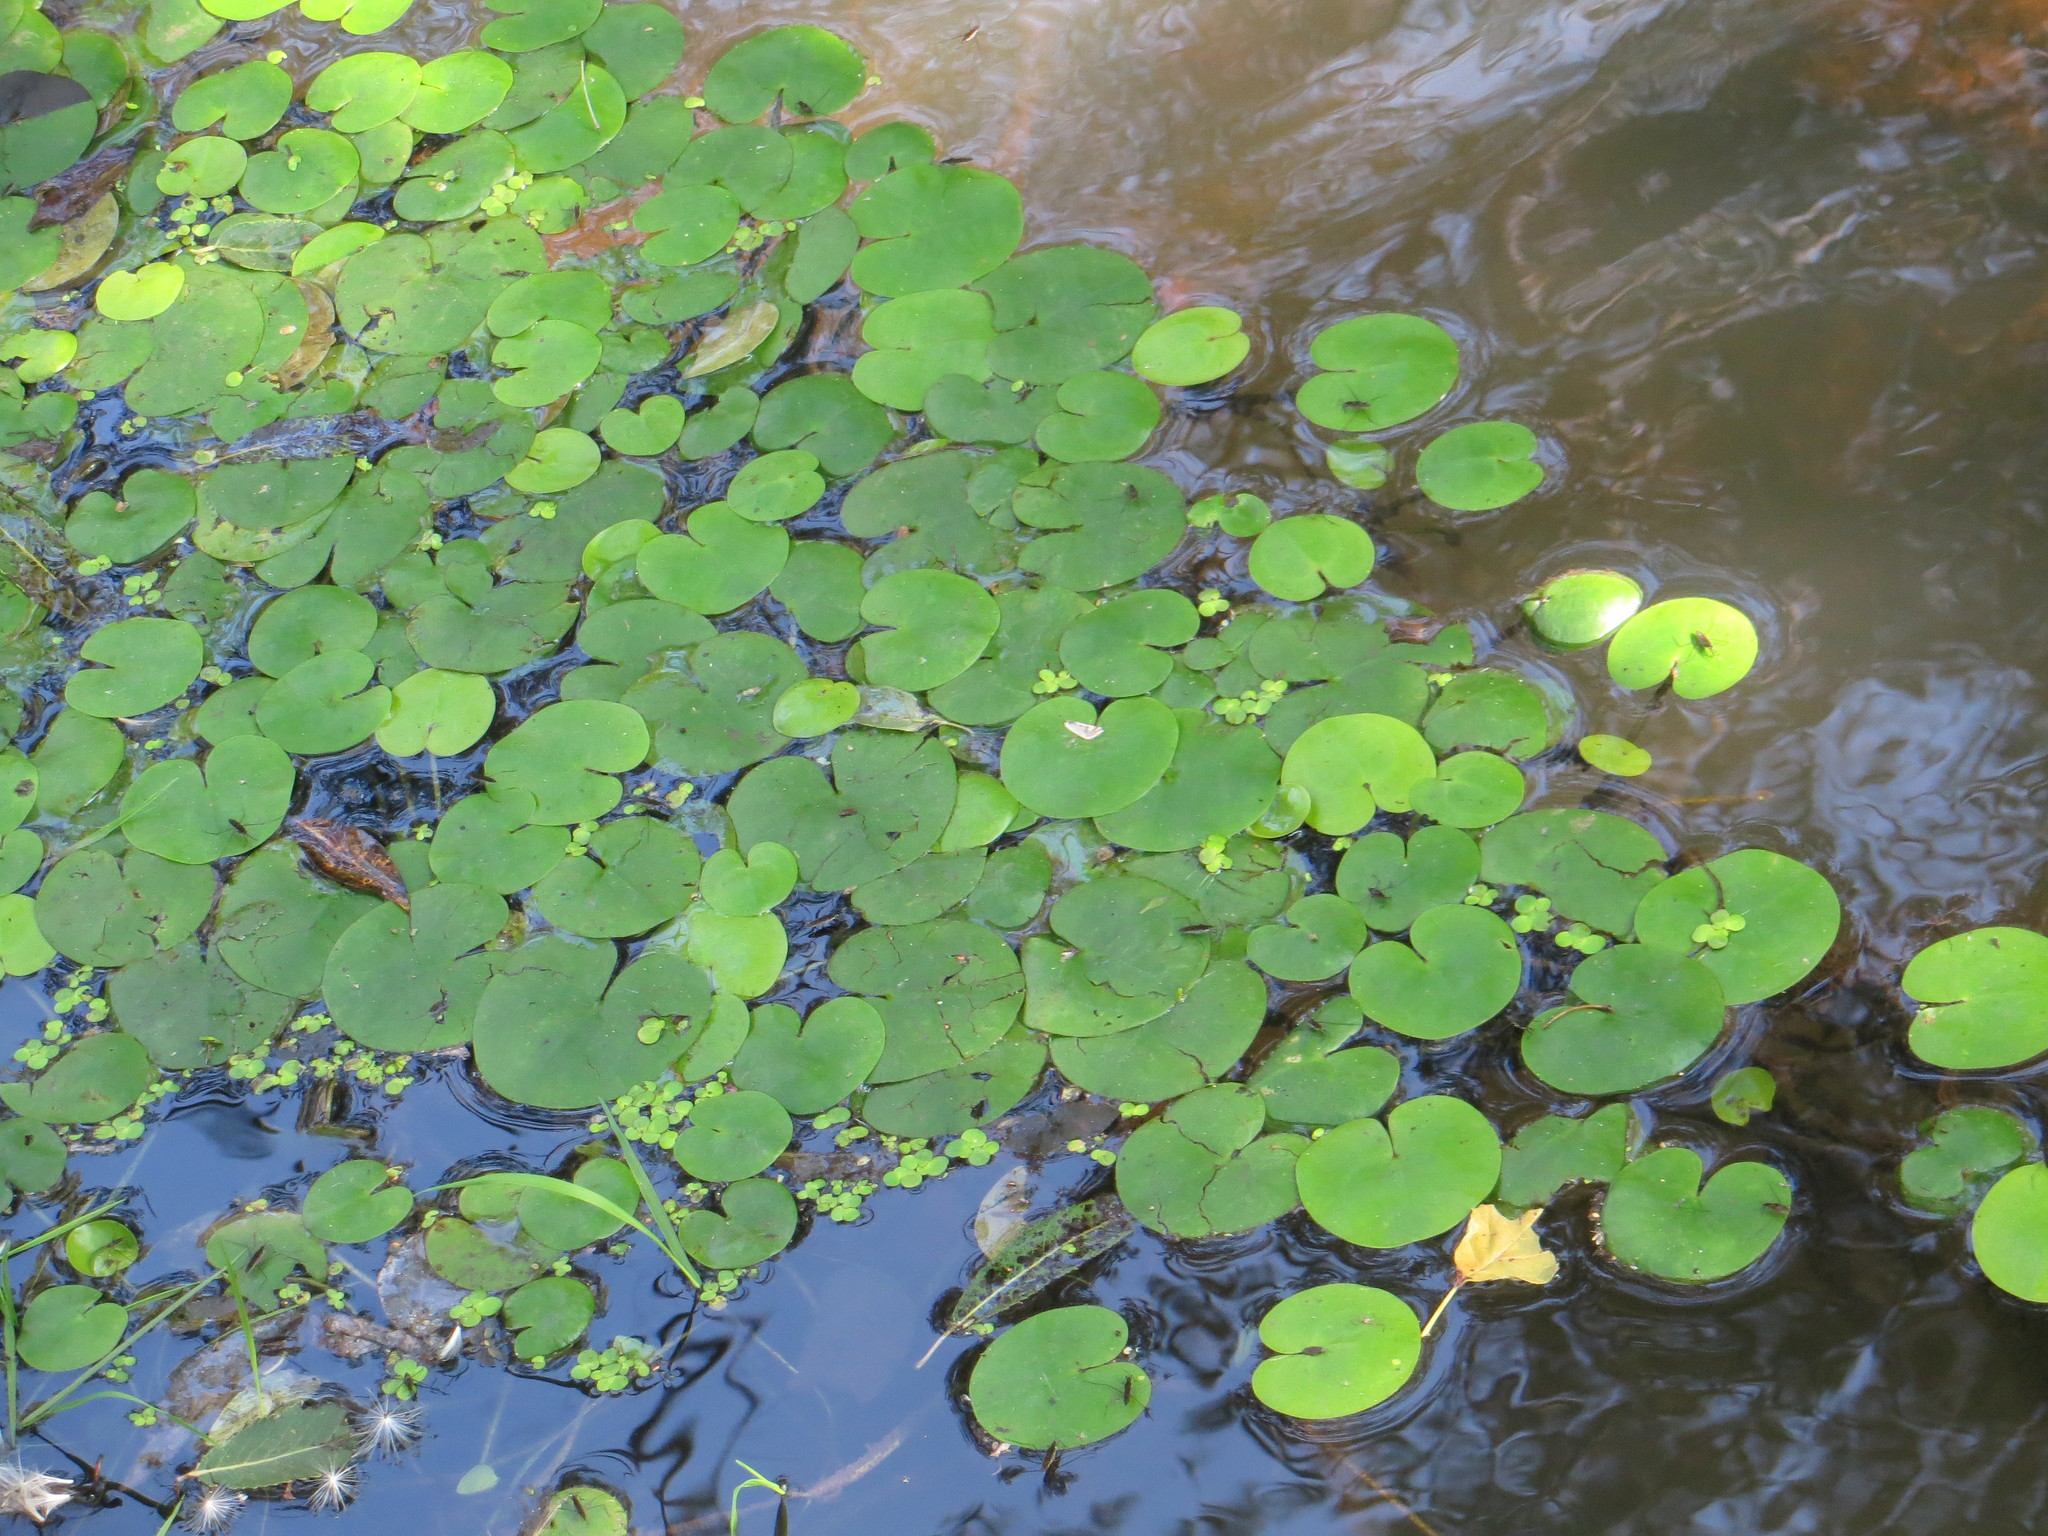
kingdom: Plantae
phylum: Tracheophyta
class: Liliopsida
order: Alismatales
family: Hydrocharitaceae
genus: Hydrocharis
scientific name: Hydrocharis morsus-ranae
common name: Frogbit
